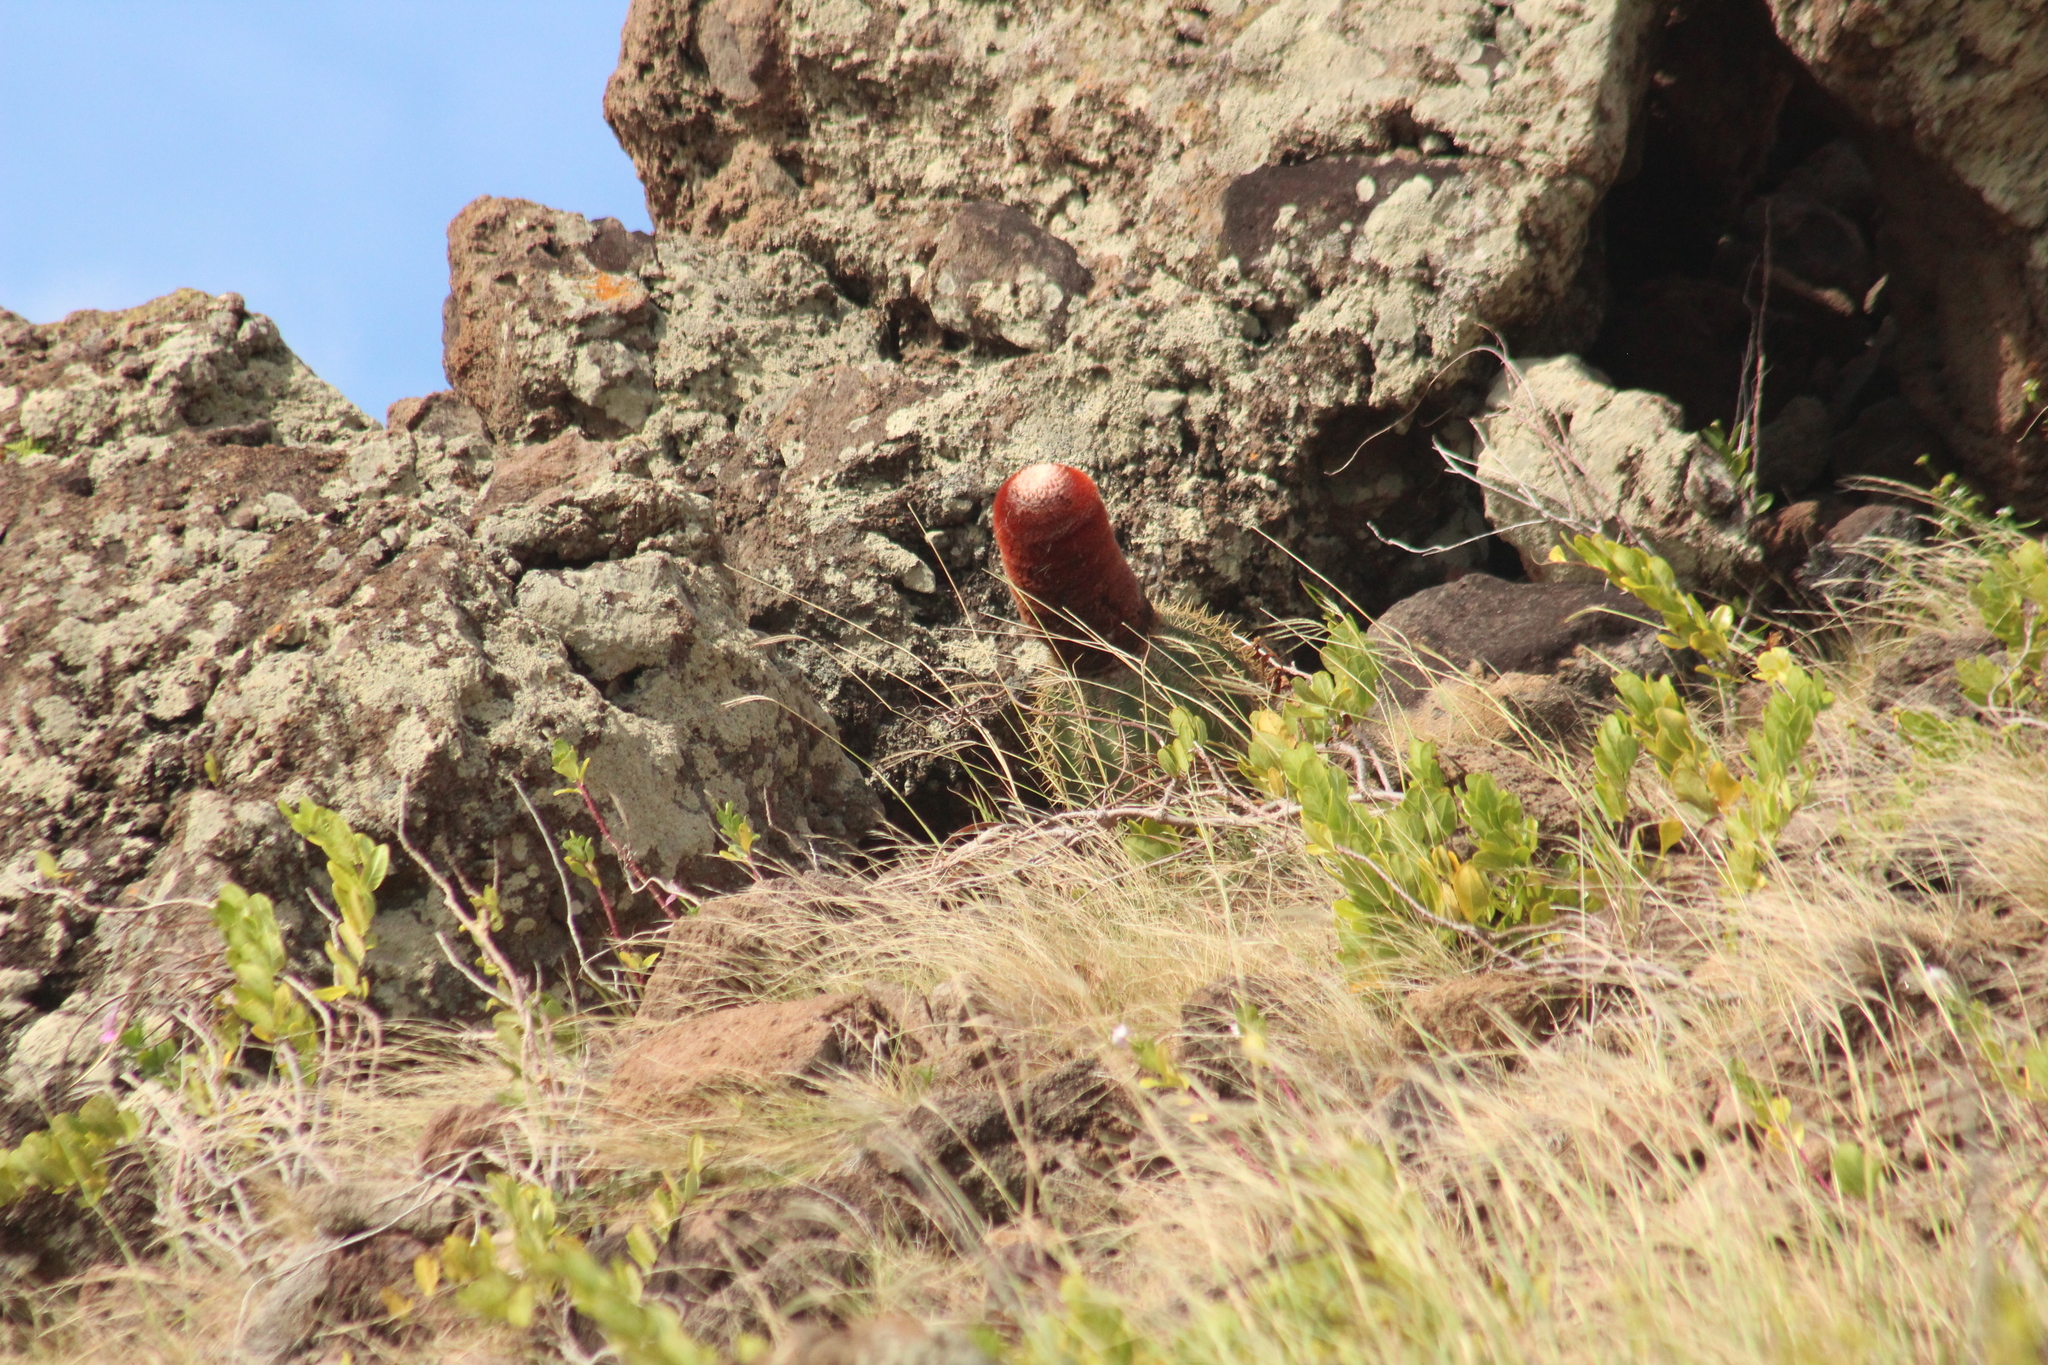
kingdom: Plantae
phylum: Tracheophyta
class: Magnoliopsida
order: Caryophyllales
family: Cactaceae
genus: Melocactus
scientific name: Melocactus intortus
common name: Barrel cactus
